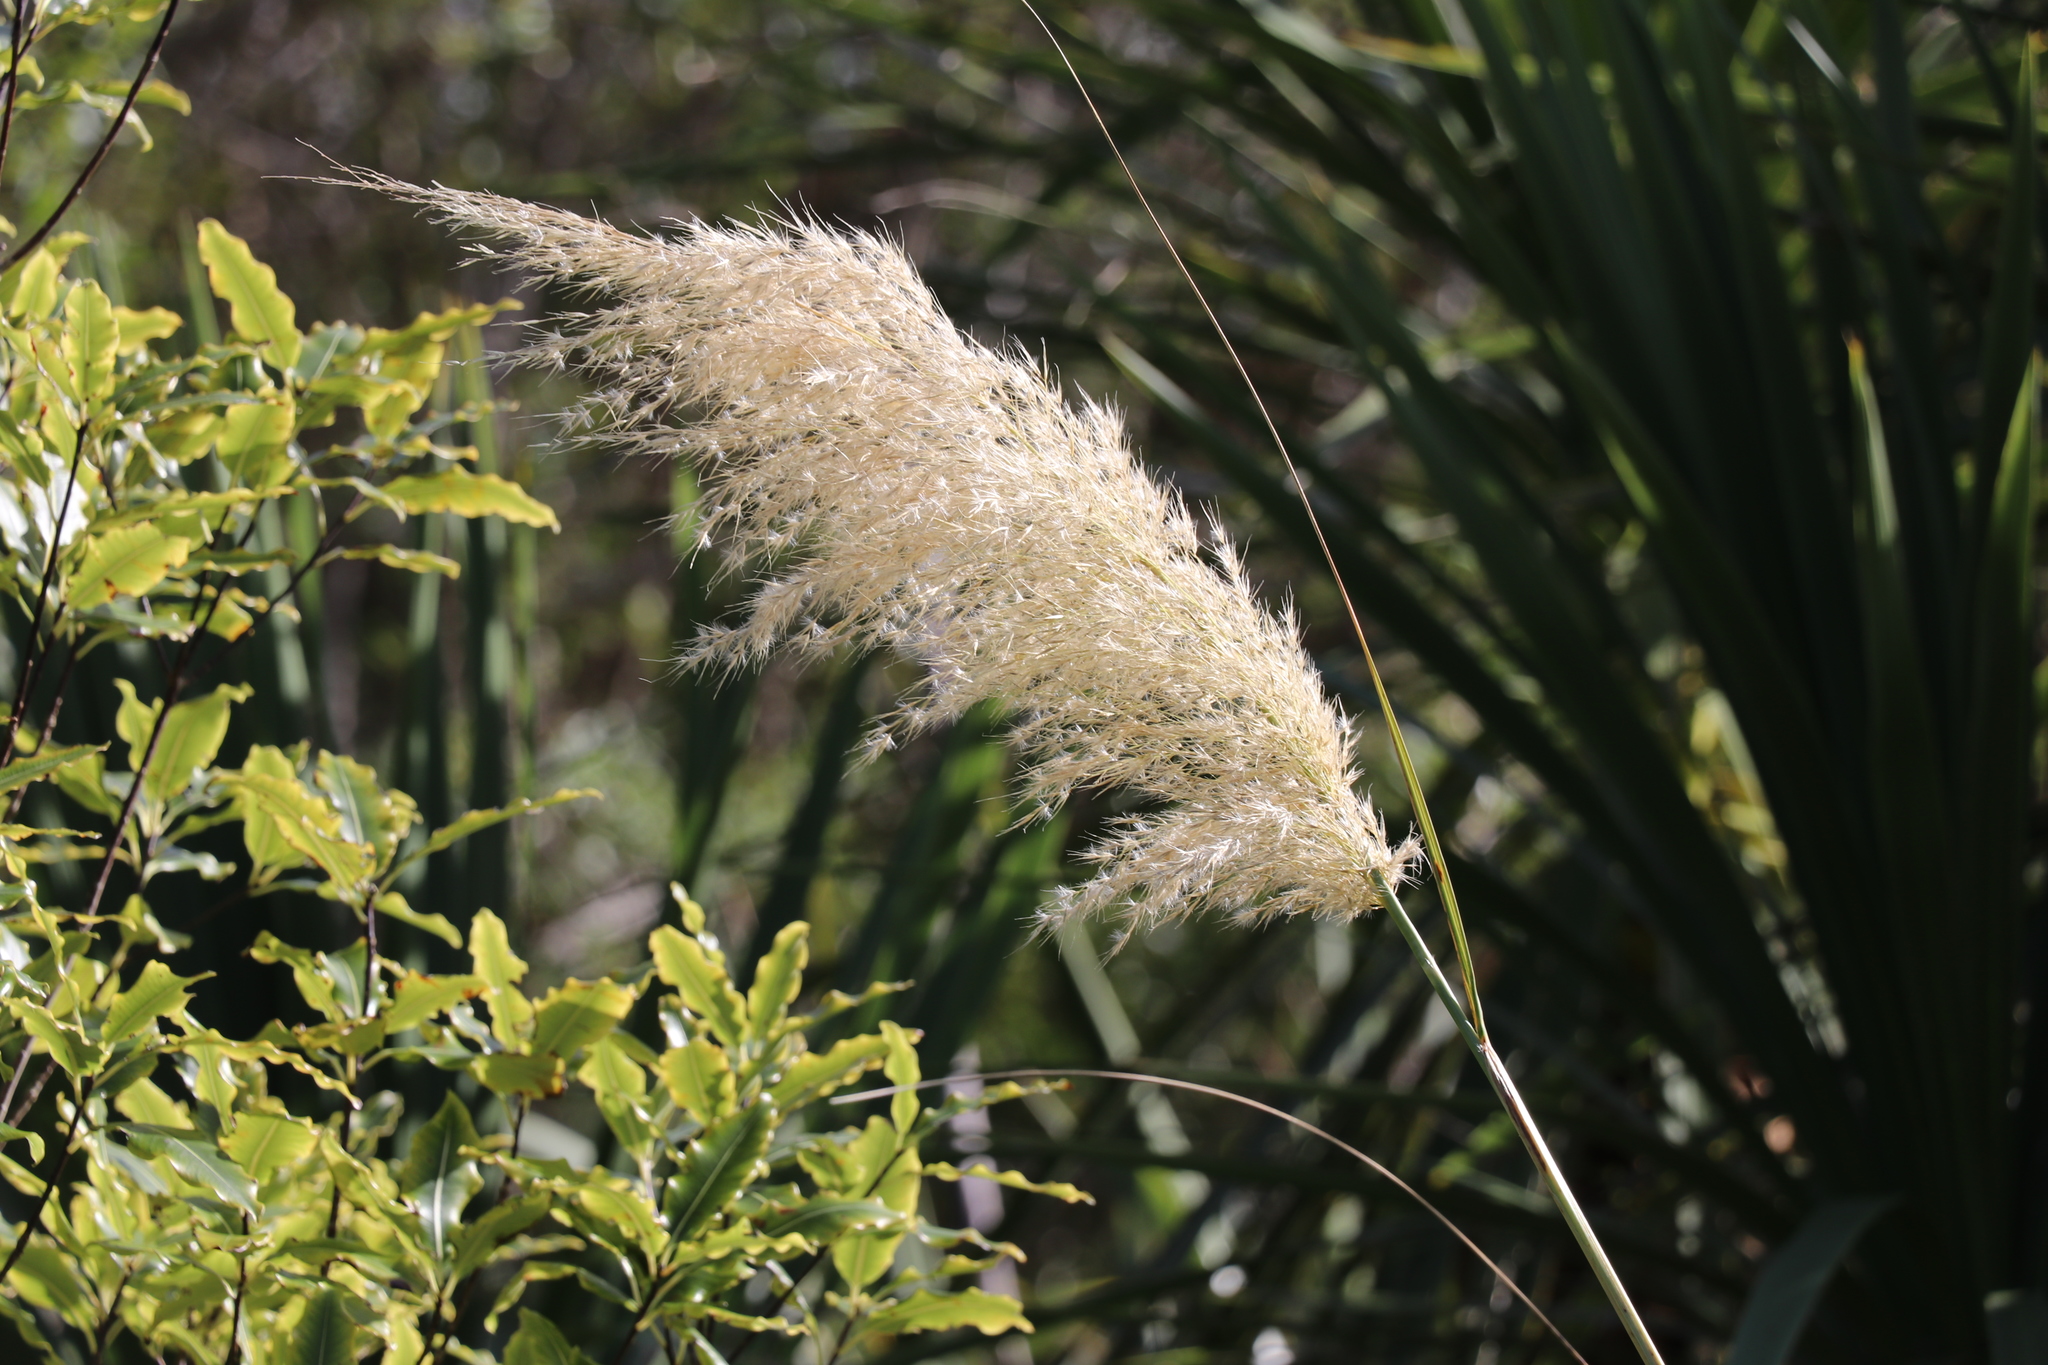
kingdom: Plantae
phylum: Tracheophyta
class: Liliopsida
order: Poales
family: Poaceae
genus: Austroderia
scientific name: Austroderia toetoe
